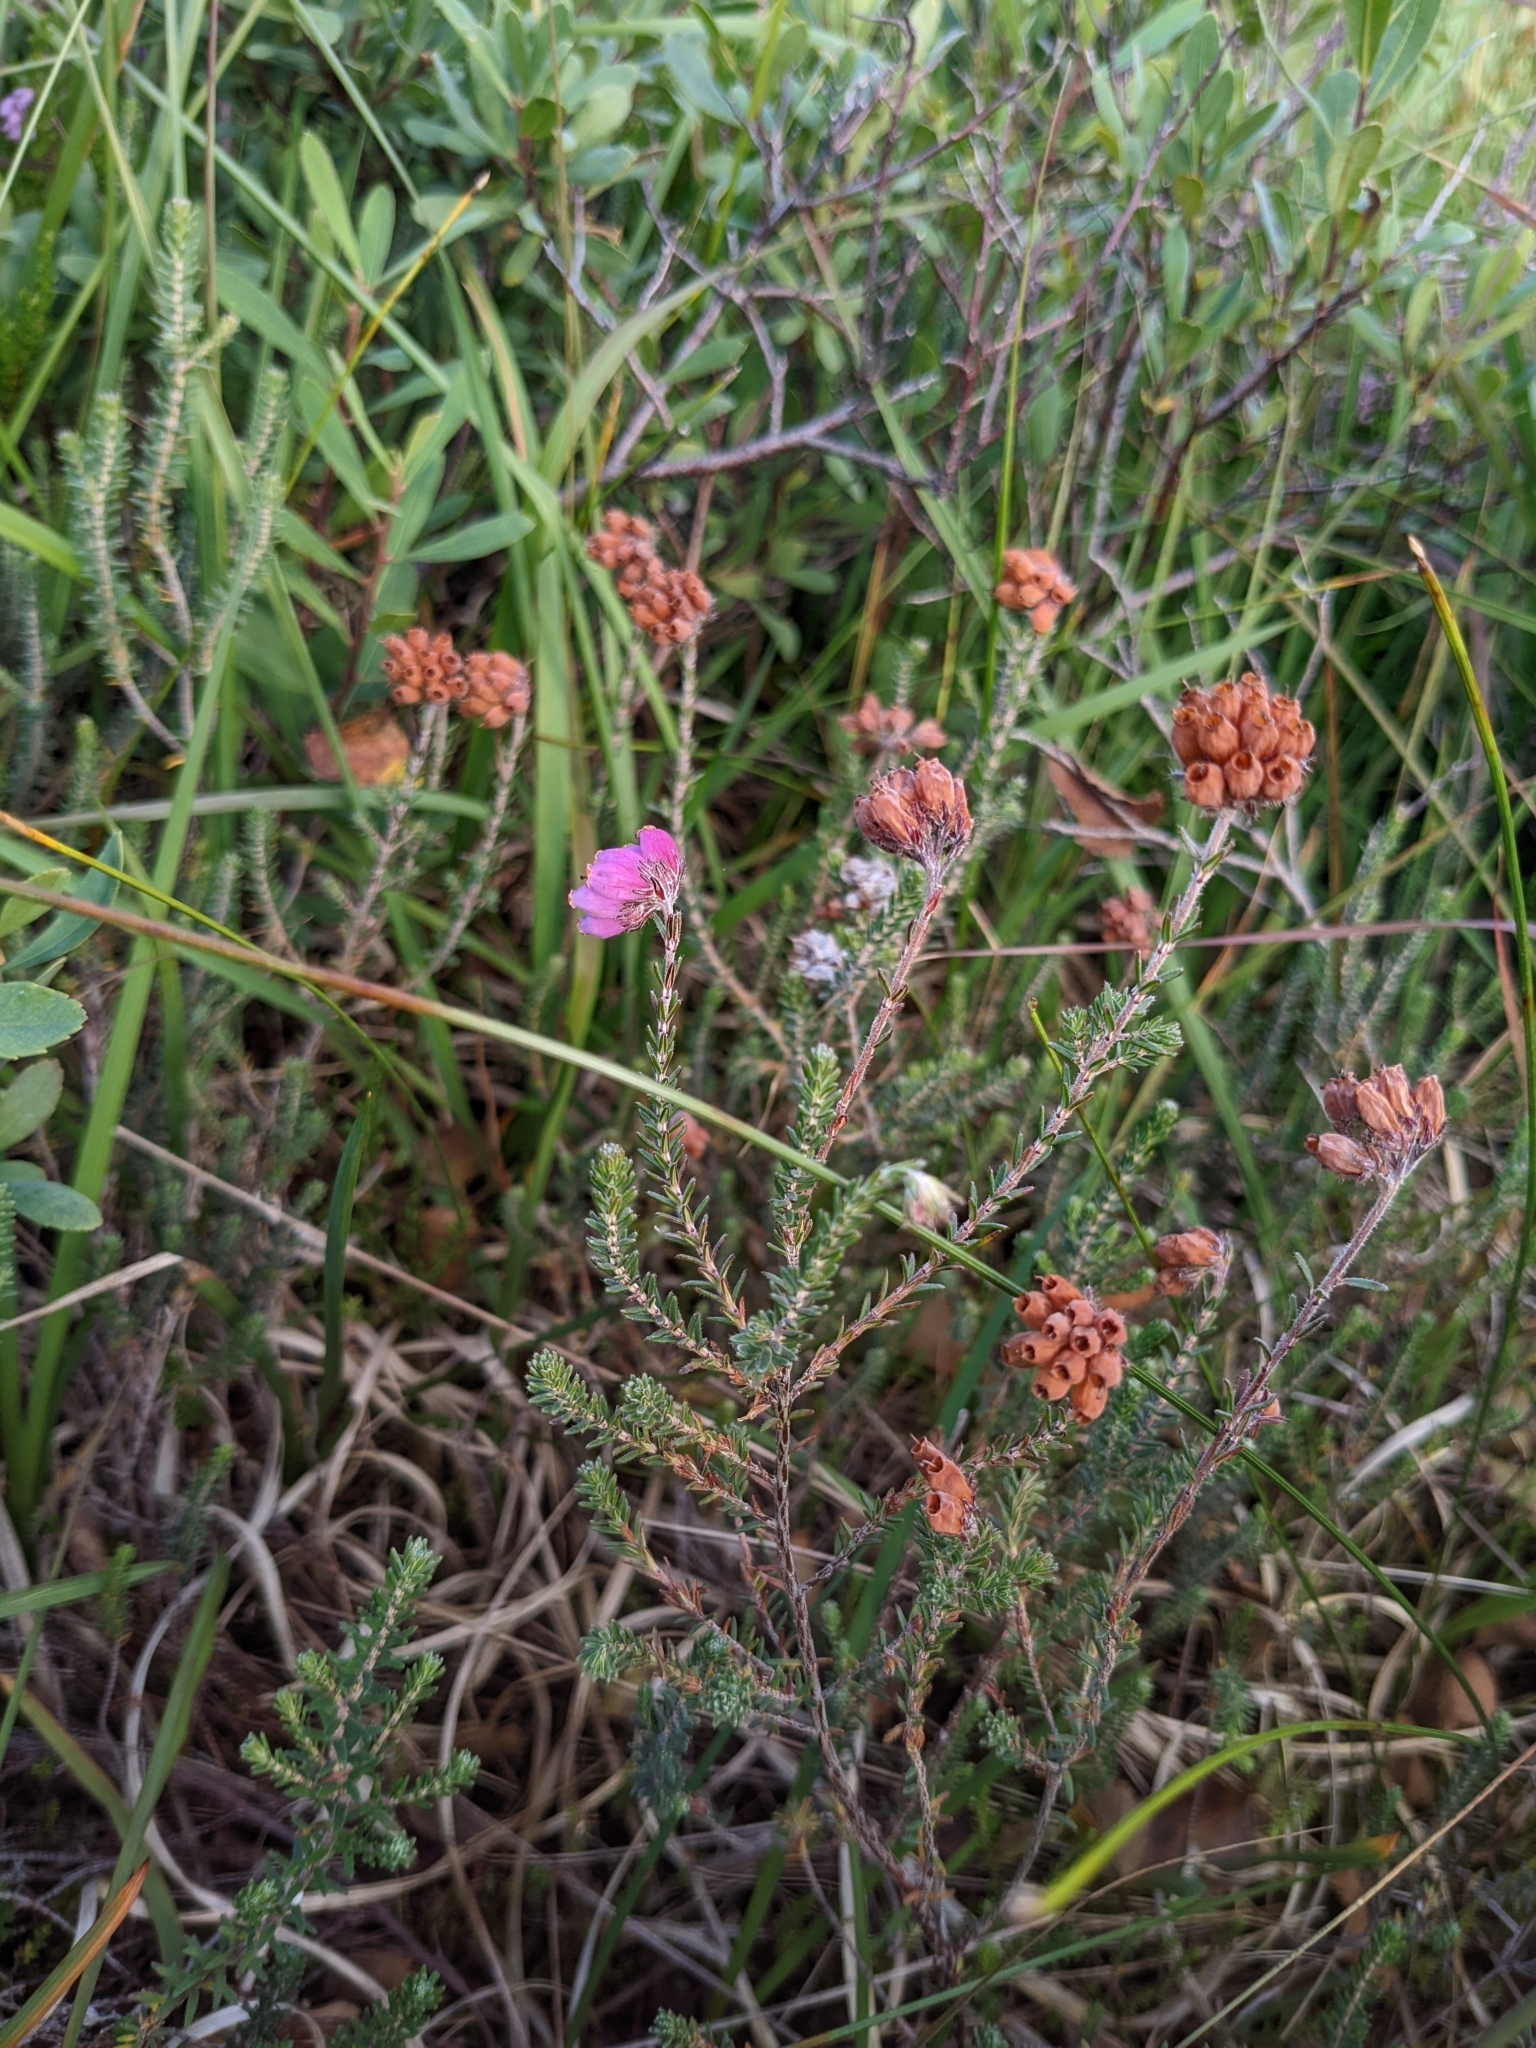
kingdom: Plantae
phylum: Tracheophyta
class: Magnoliopsida
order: Ericales
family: Ericaceae
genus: Erica
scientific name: Erica tetralix
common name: Cross-leaved heath
